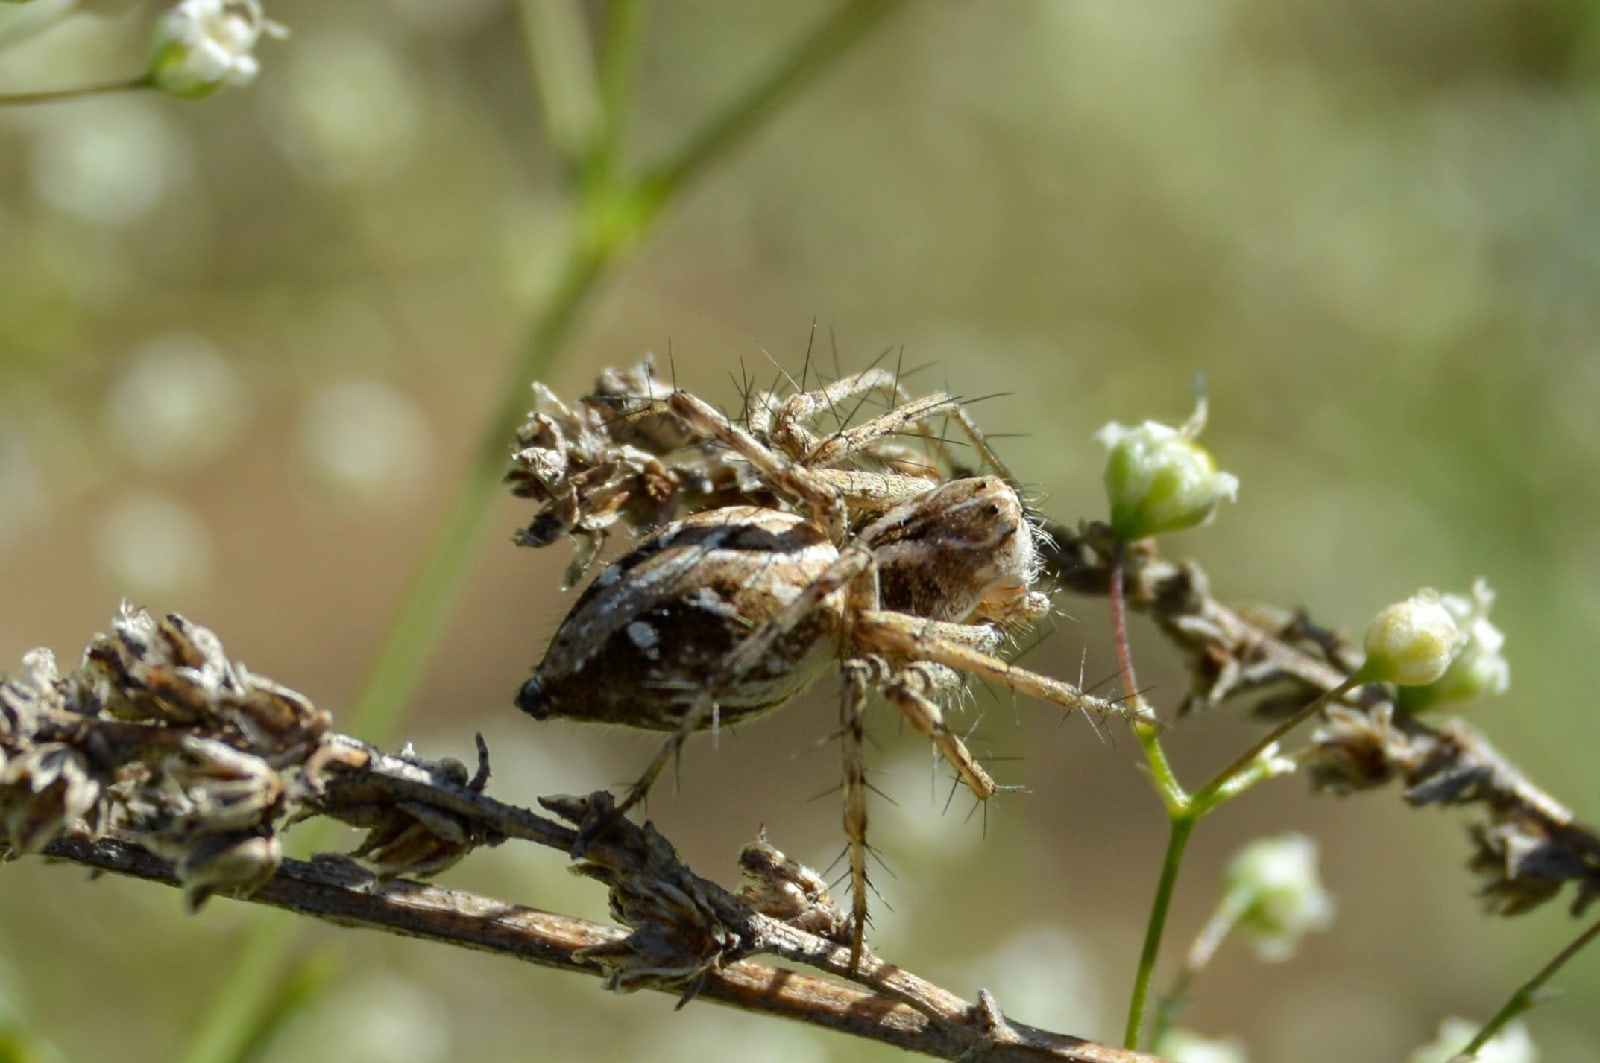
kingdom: Animalia
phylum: Arthropoda
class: Arachnida
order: Araneae
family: Oxyopidae
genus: Oxyopes
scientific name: Oxyopes heterophthalmus
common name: Lynx spider
